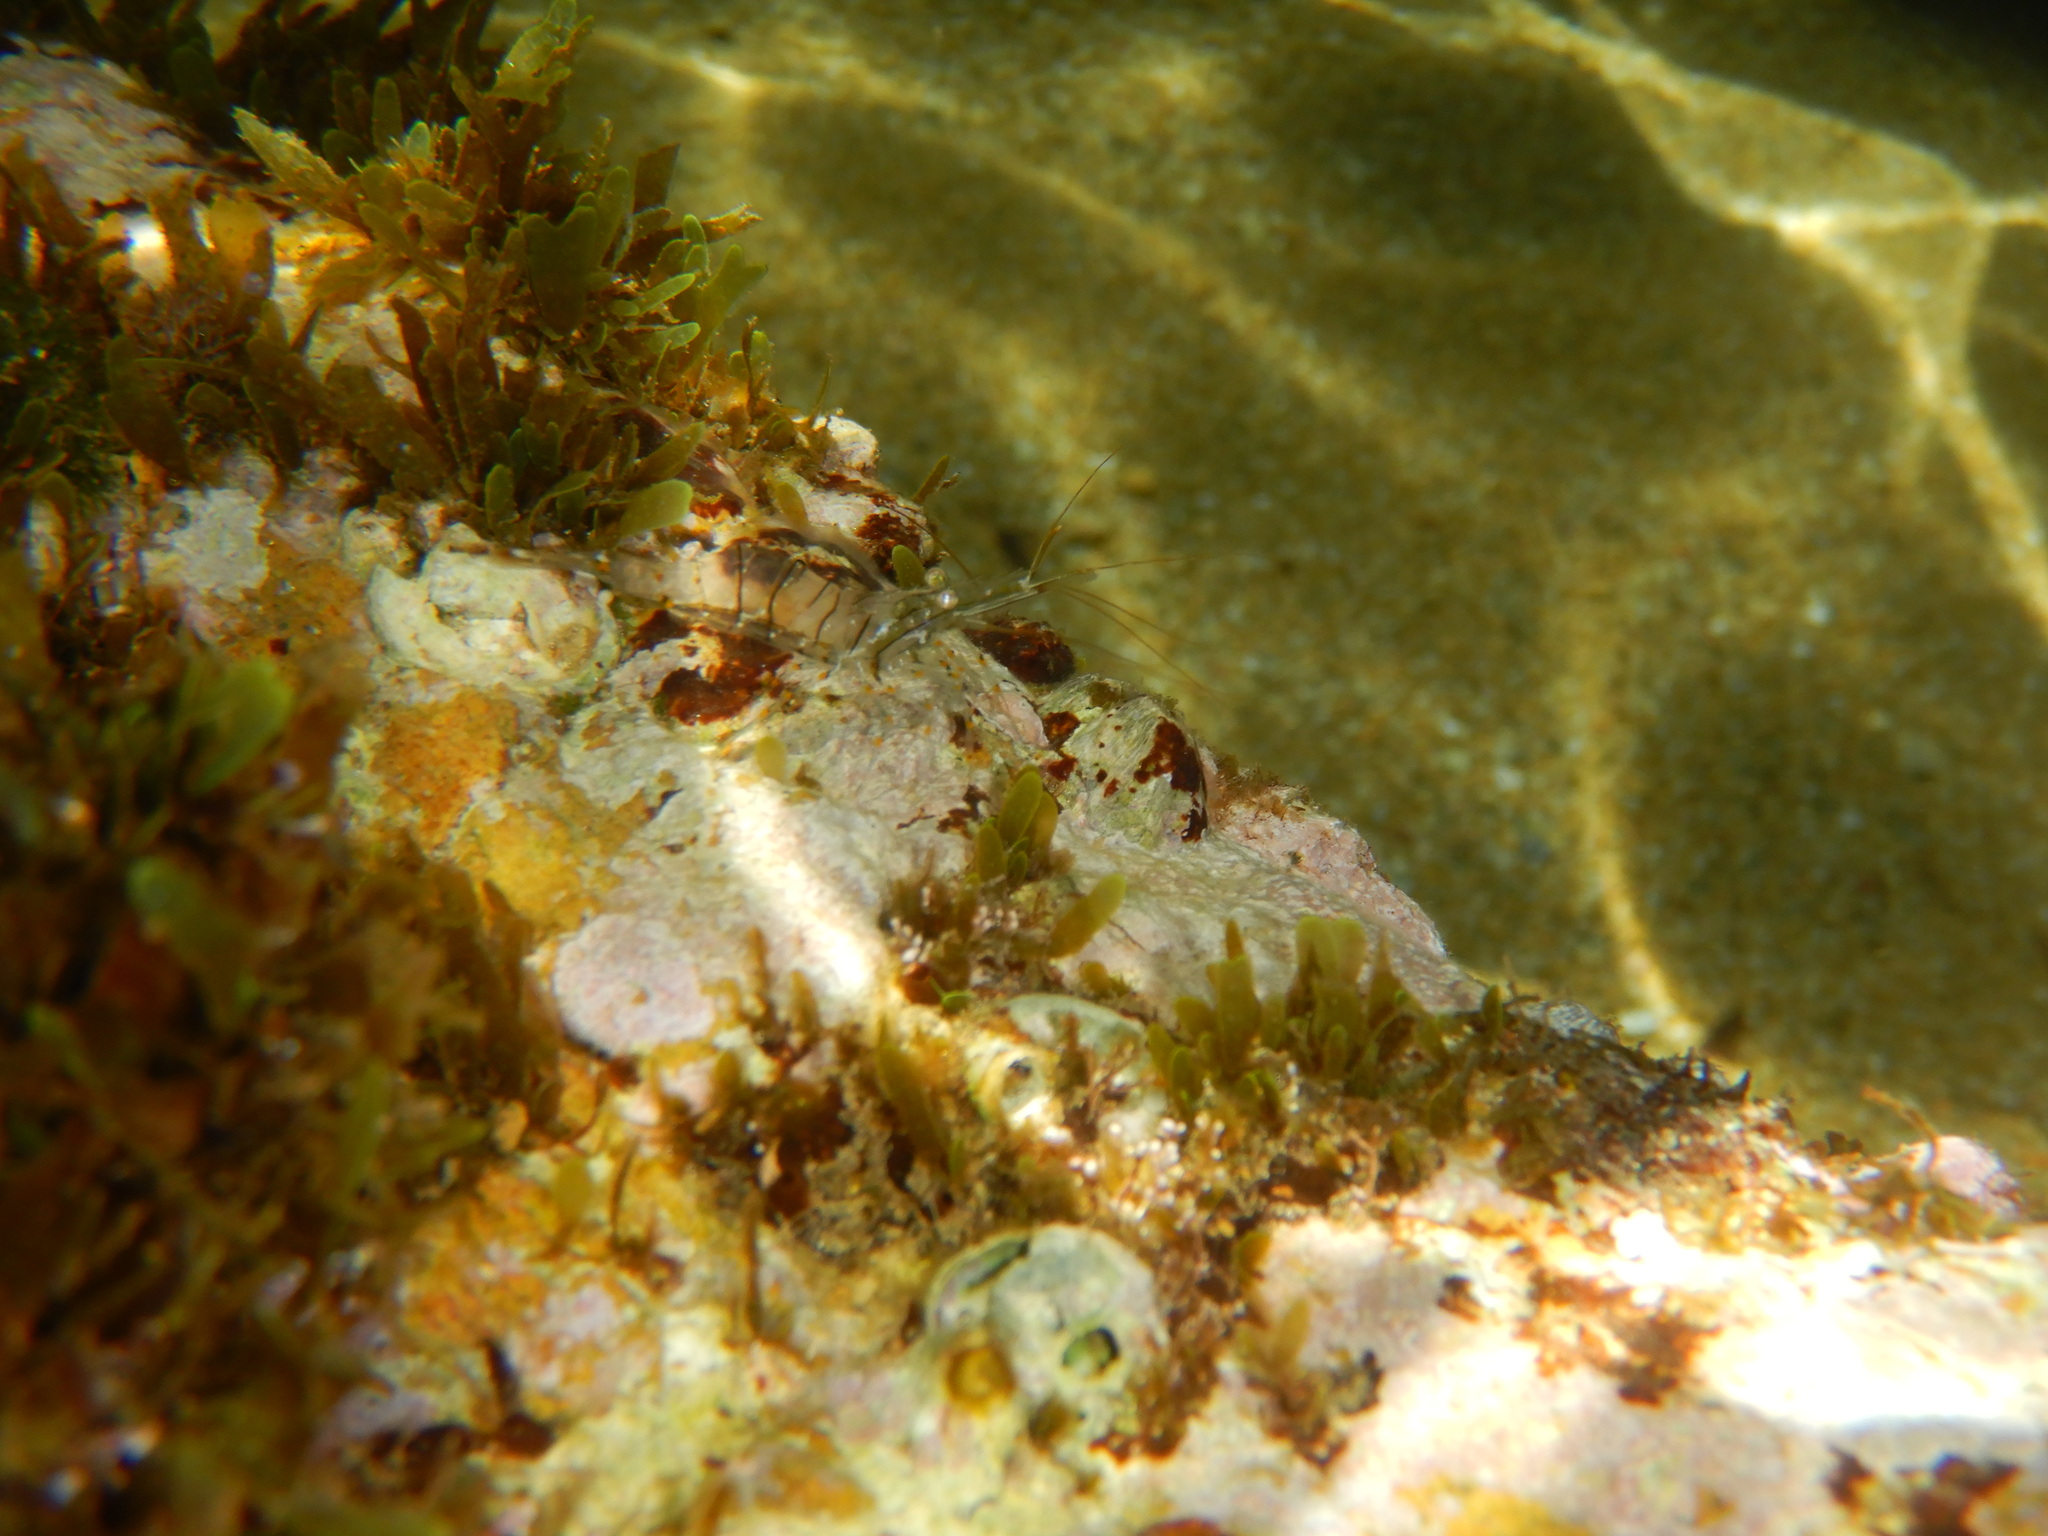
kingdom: Animalia
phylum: Arthropoda
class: Malacostraca
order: Decapoda
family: Palaemonidae
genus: Palaemon
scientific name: Palaemon elegans
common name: Grass prawm
